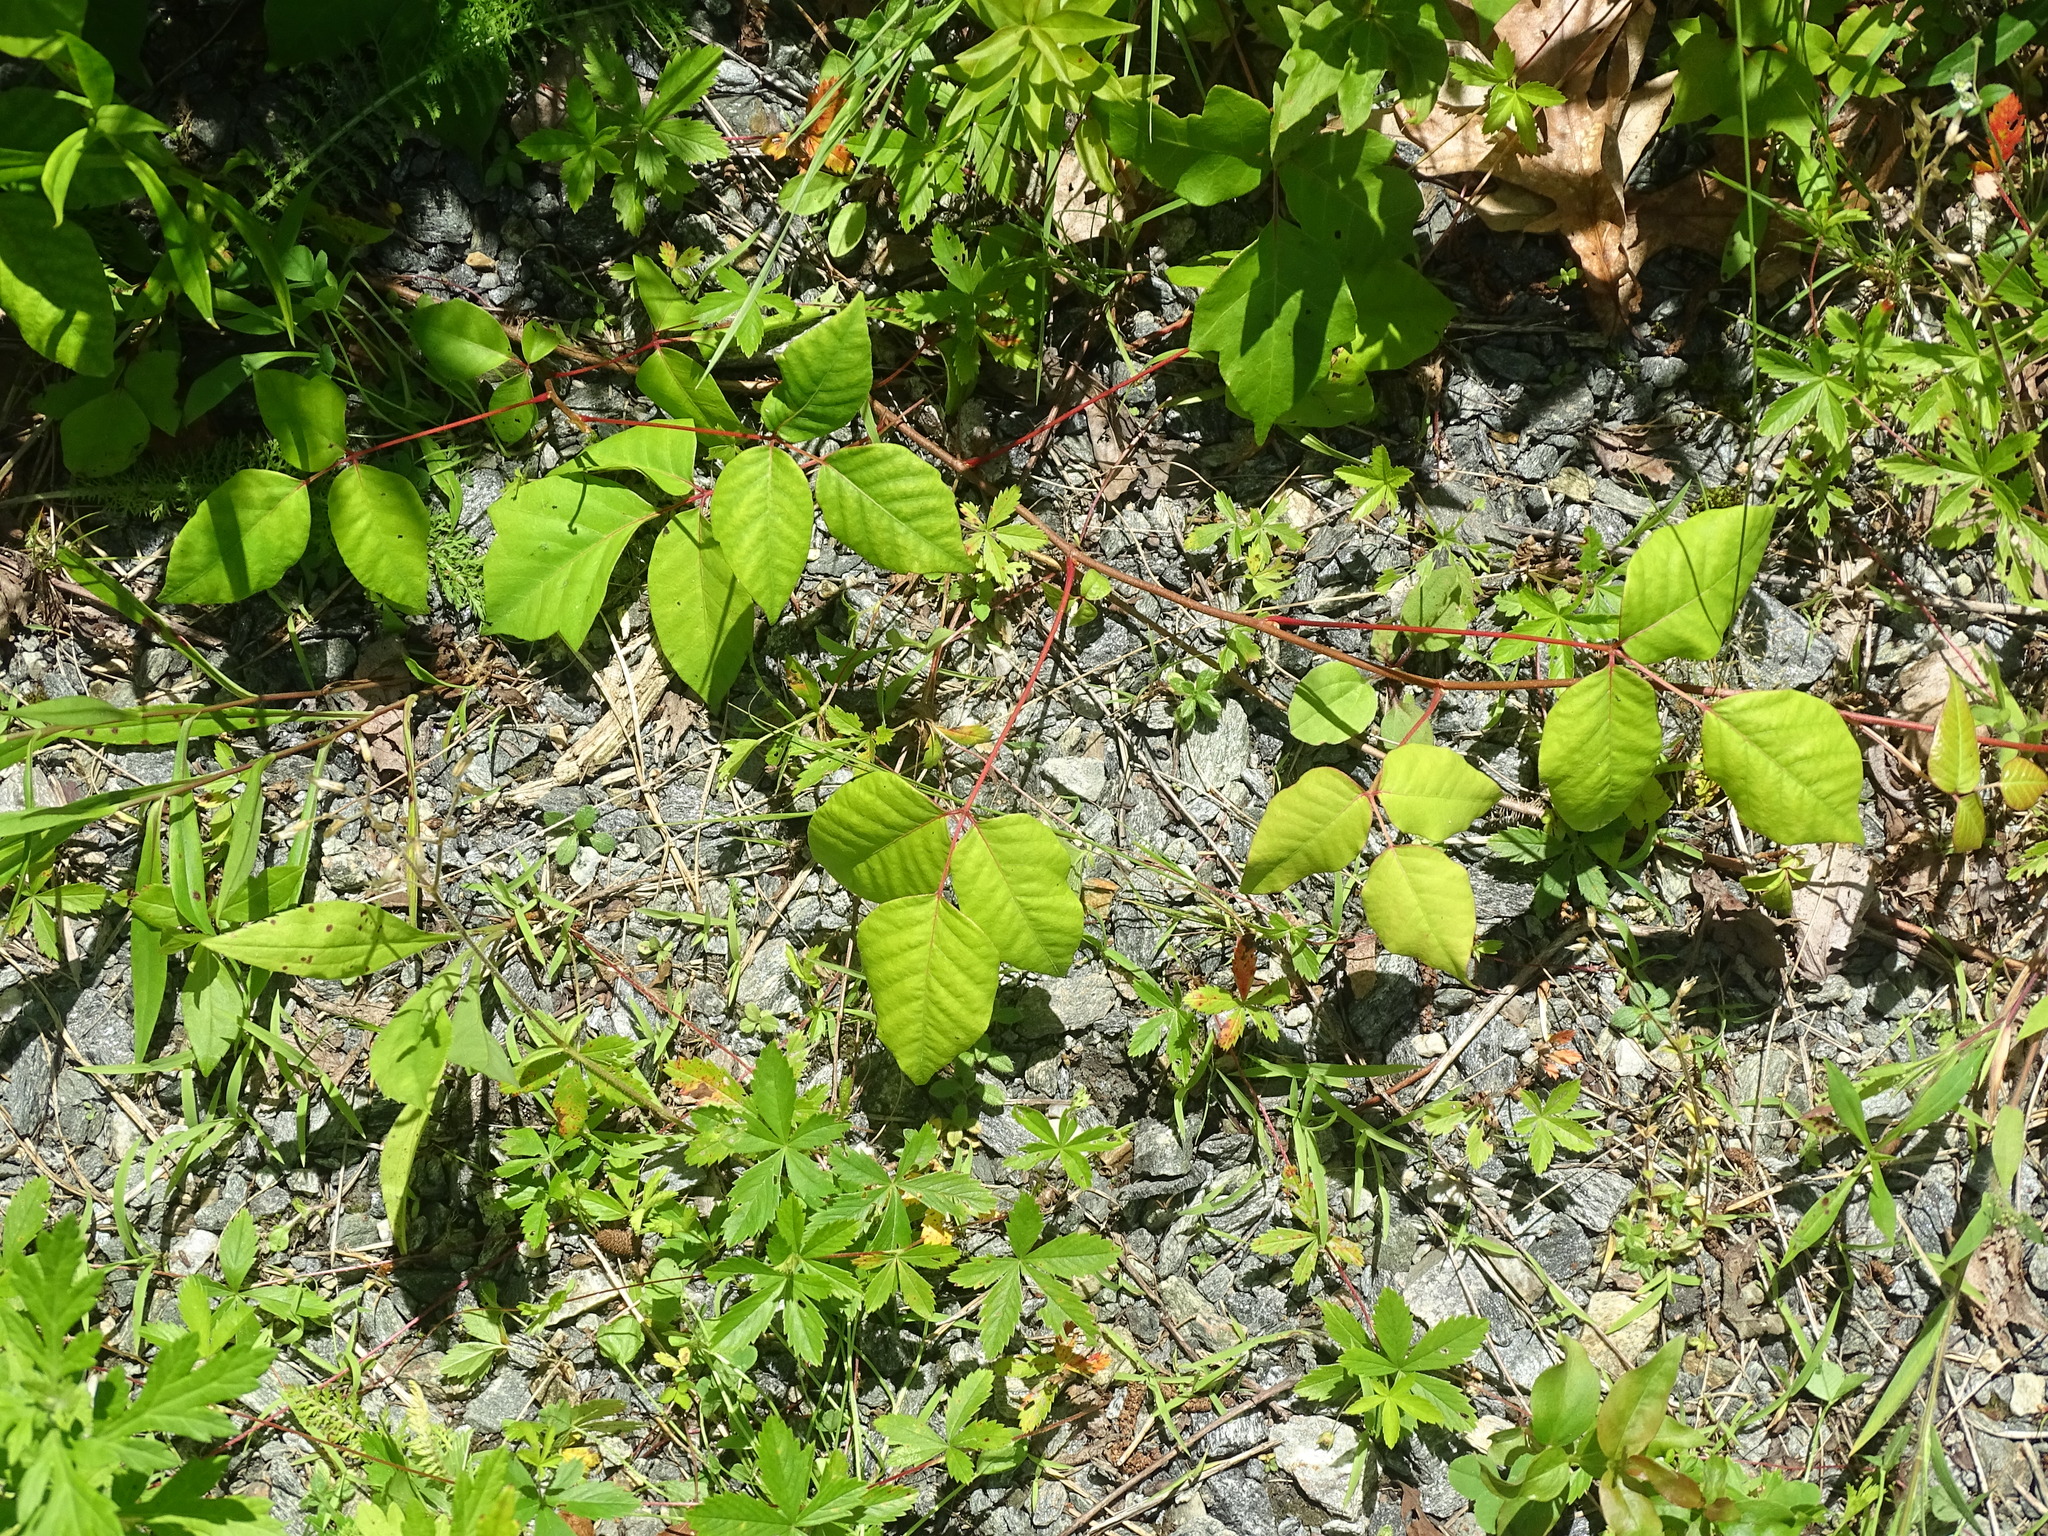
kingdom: Plantae
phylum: Tracheophyta
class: Magnoliopsida
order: Sapindales
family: Anacardiaceae
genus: Toxicodendron
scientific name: Toxicodendron radicans
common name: Poison ivy
